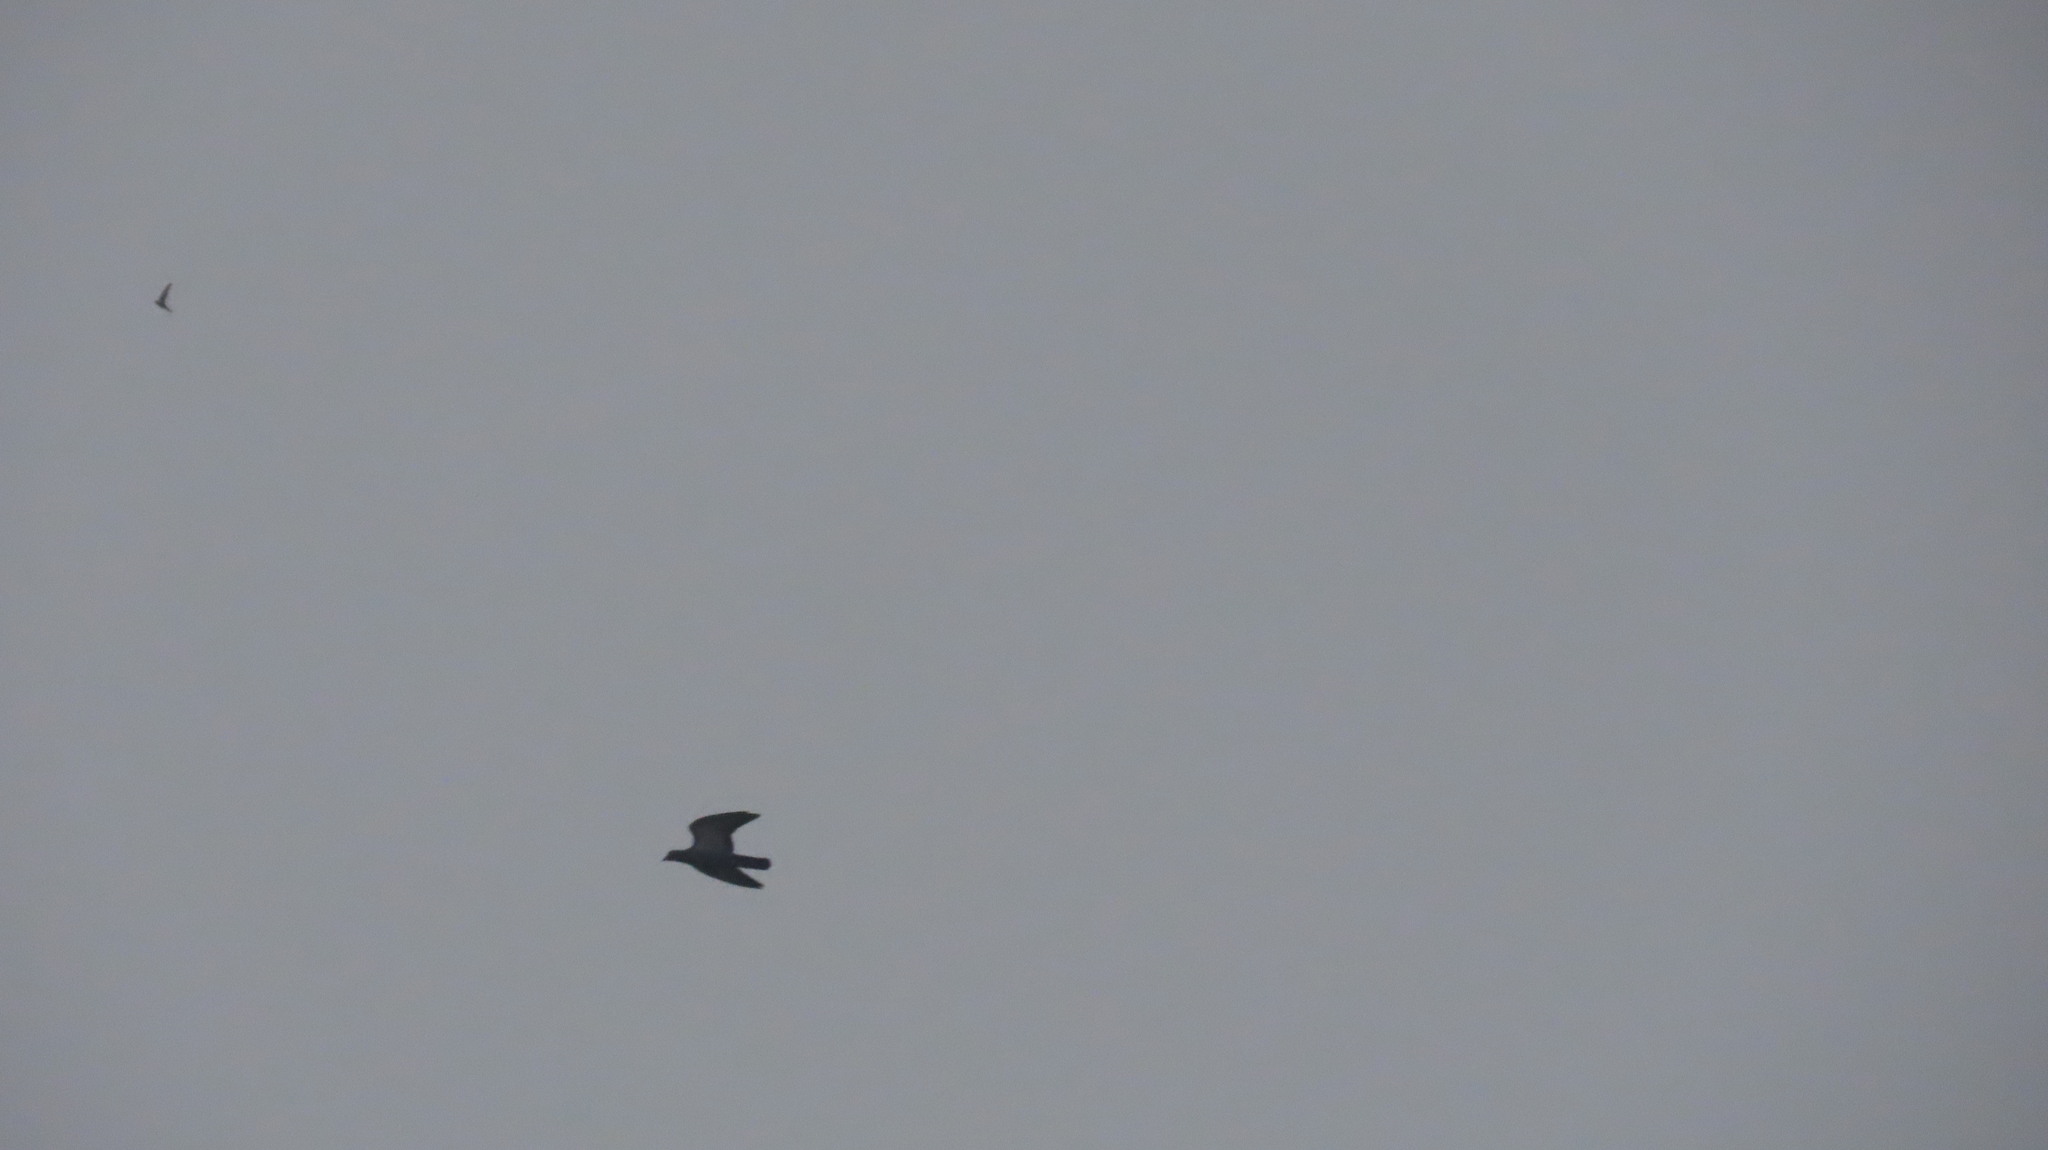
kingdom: Animalia
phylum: Chordata
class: Aves
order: Columbiformes
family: Columbidae
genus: Columba
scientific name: Columba livia
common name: Rock pigeon
